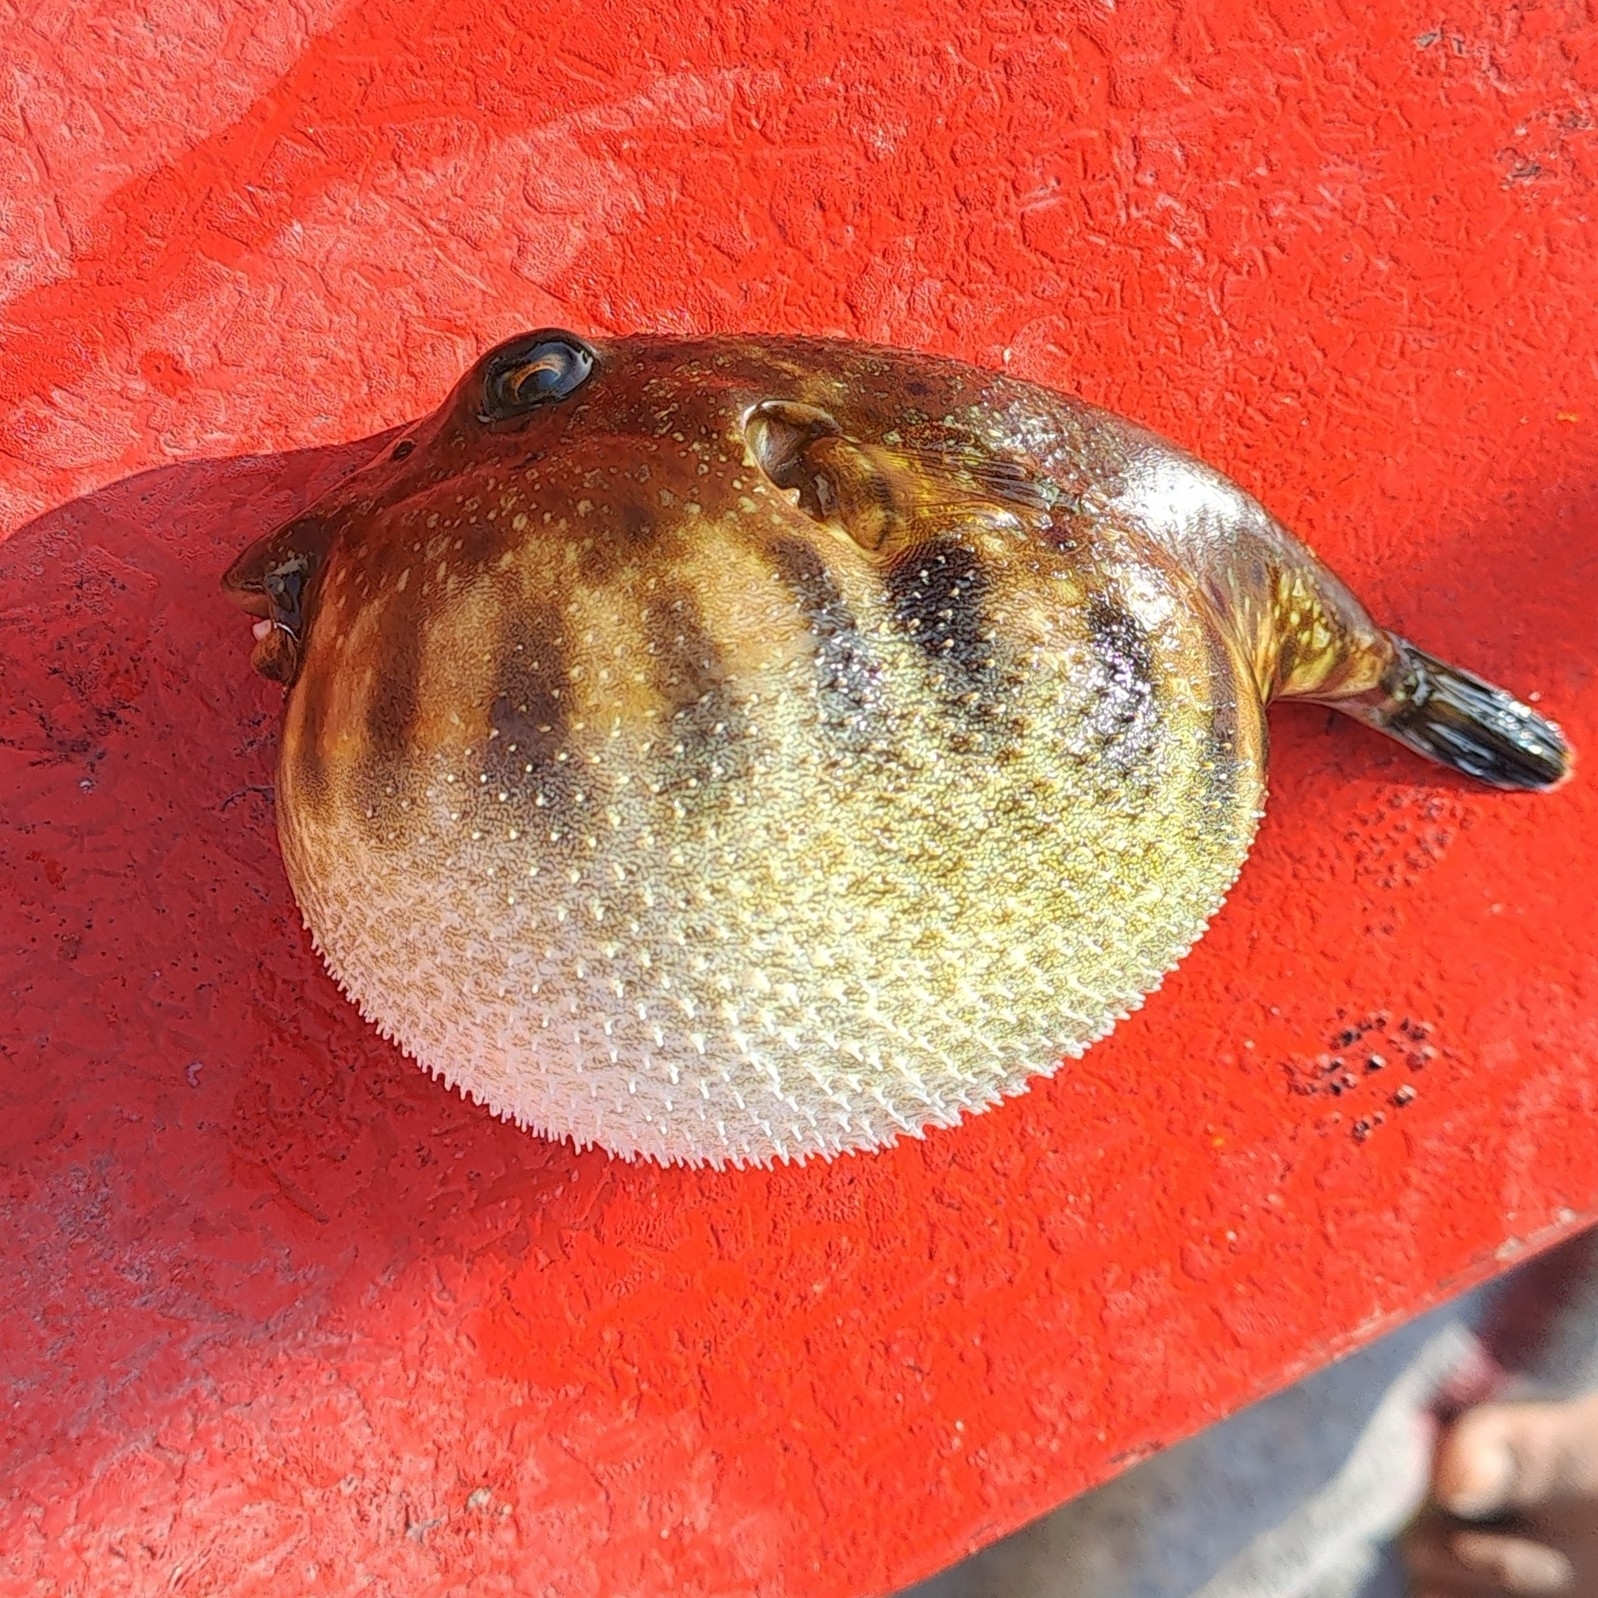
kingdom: Animalia
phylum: Chordata
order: Tetraodontiformes
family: Tetraodontidae
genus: Sphoeroides
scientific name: Sphoeroides lobatus
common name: Longnose puffer
